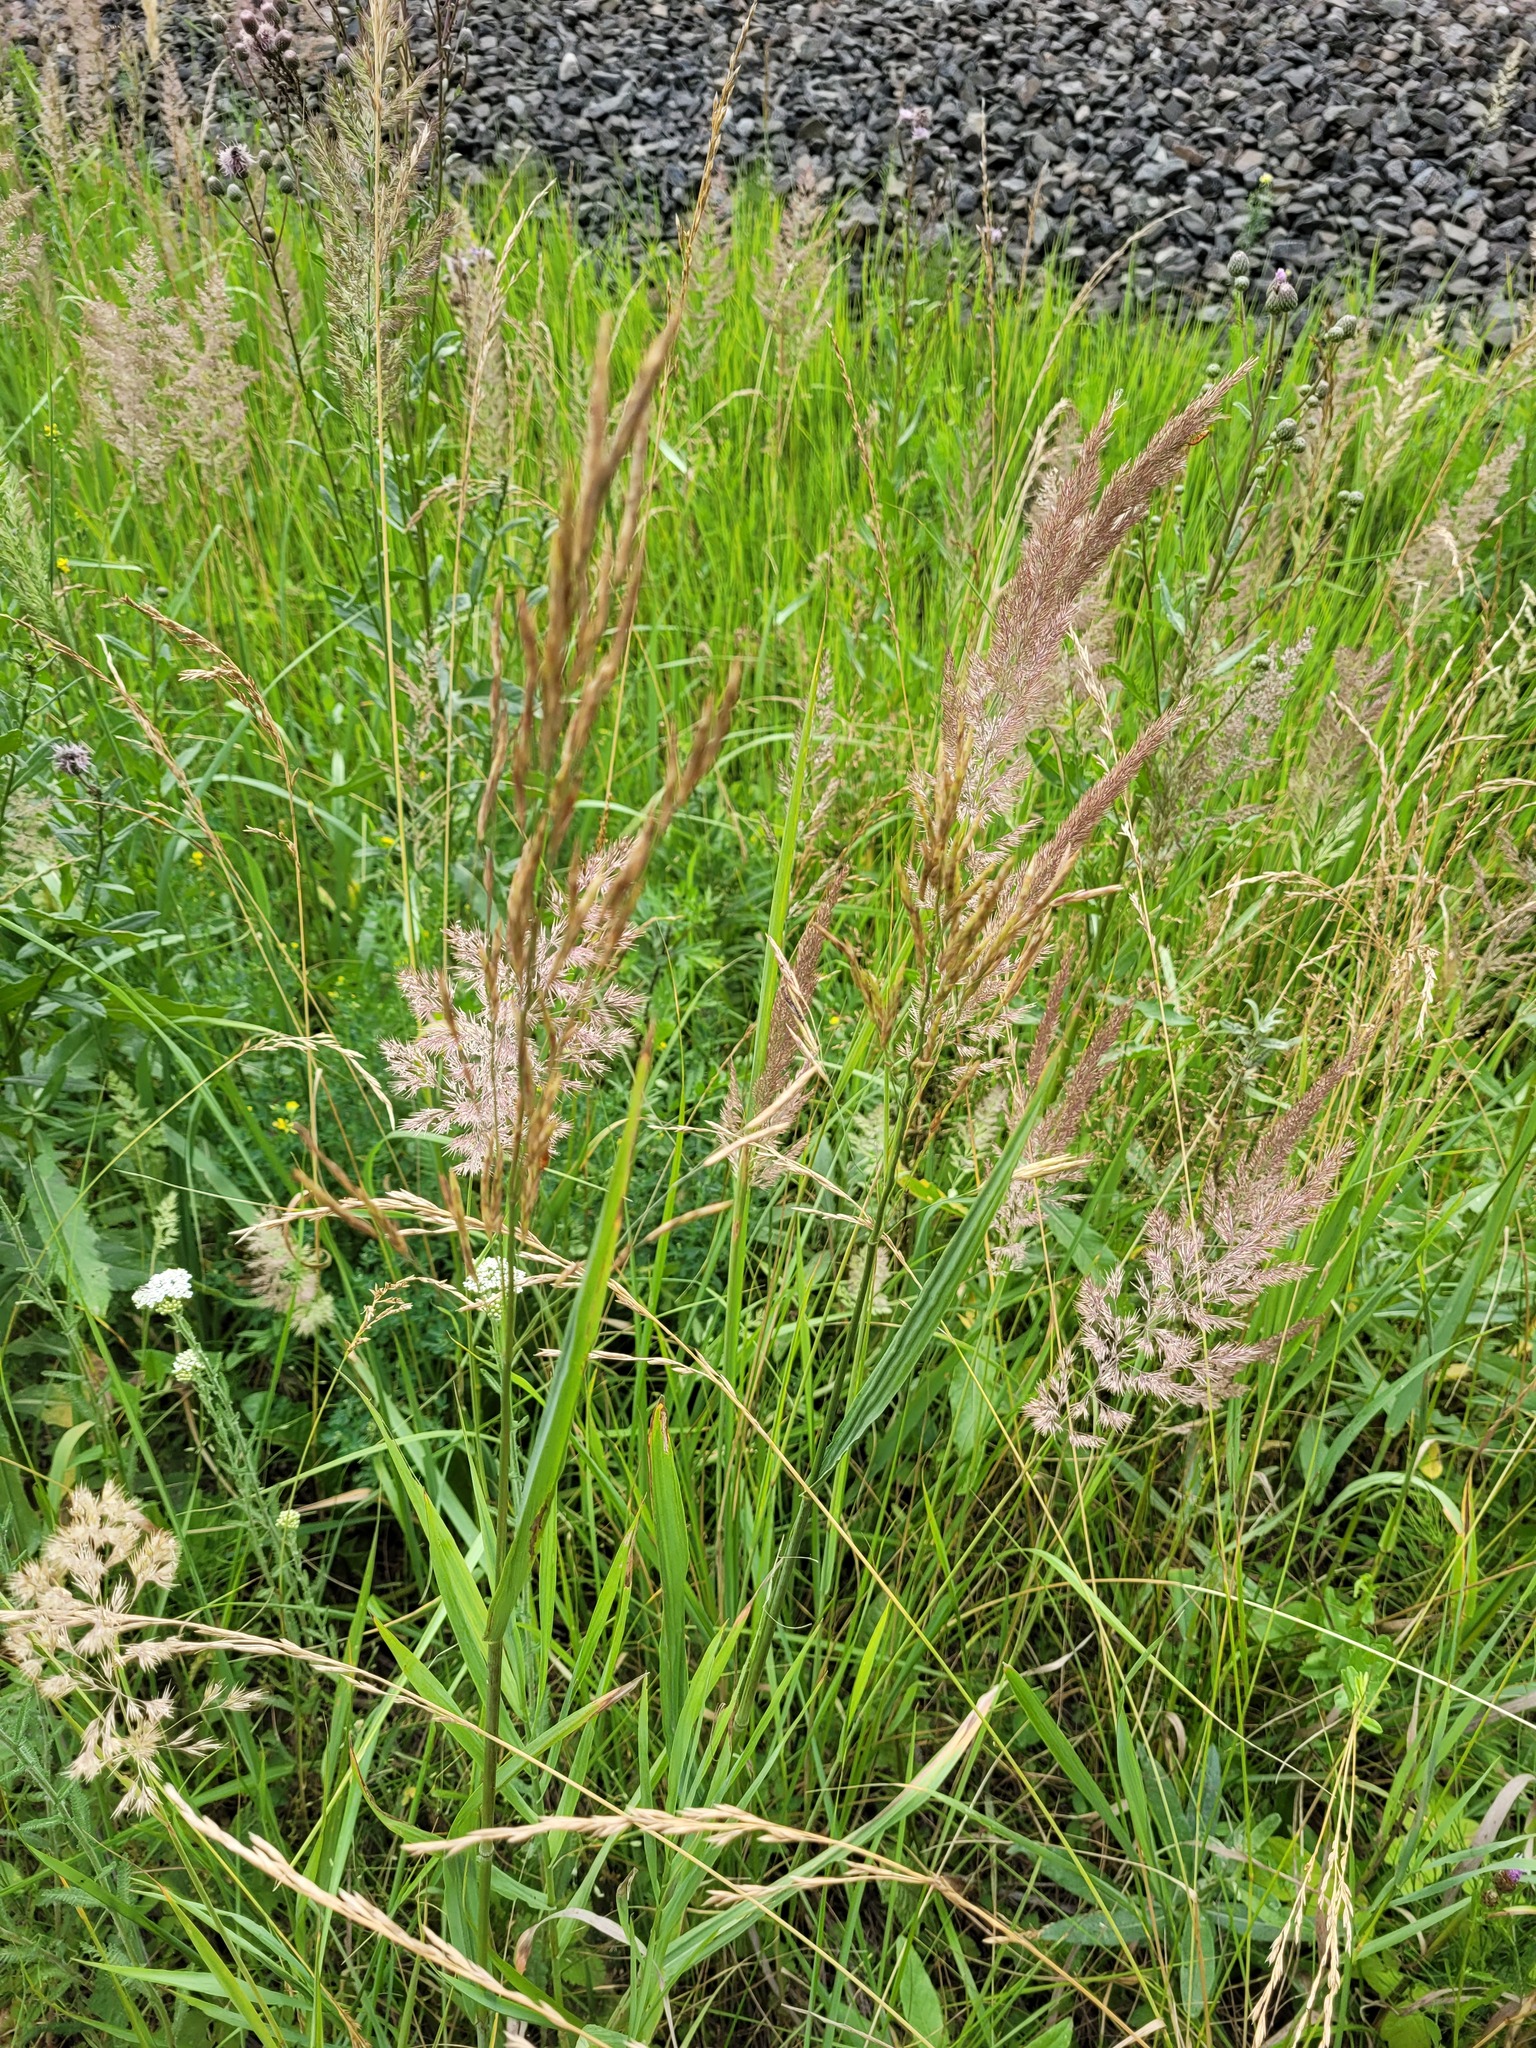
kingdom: Plantae
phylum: Tracheophyta
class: Liliopsida
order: Poales
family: Poaceae
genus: Bromus
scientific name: Bromus inermis
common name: Smooth brome
